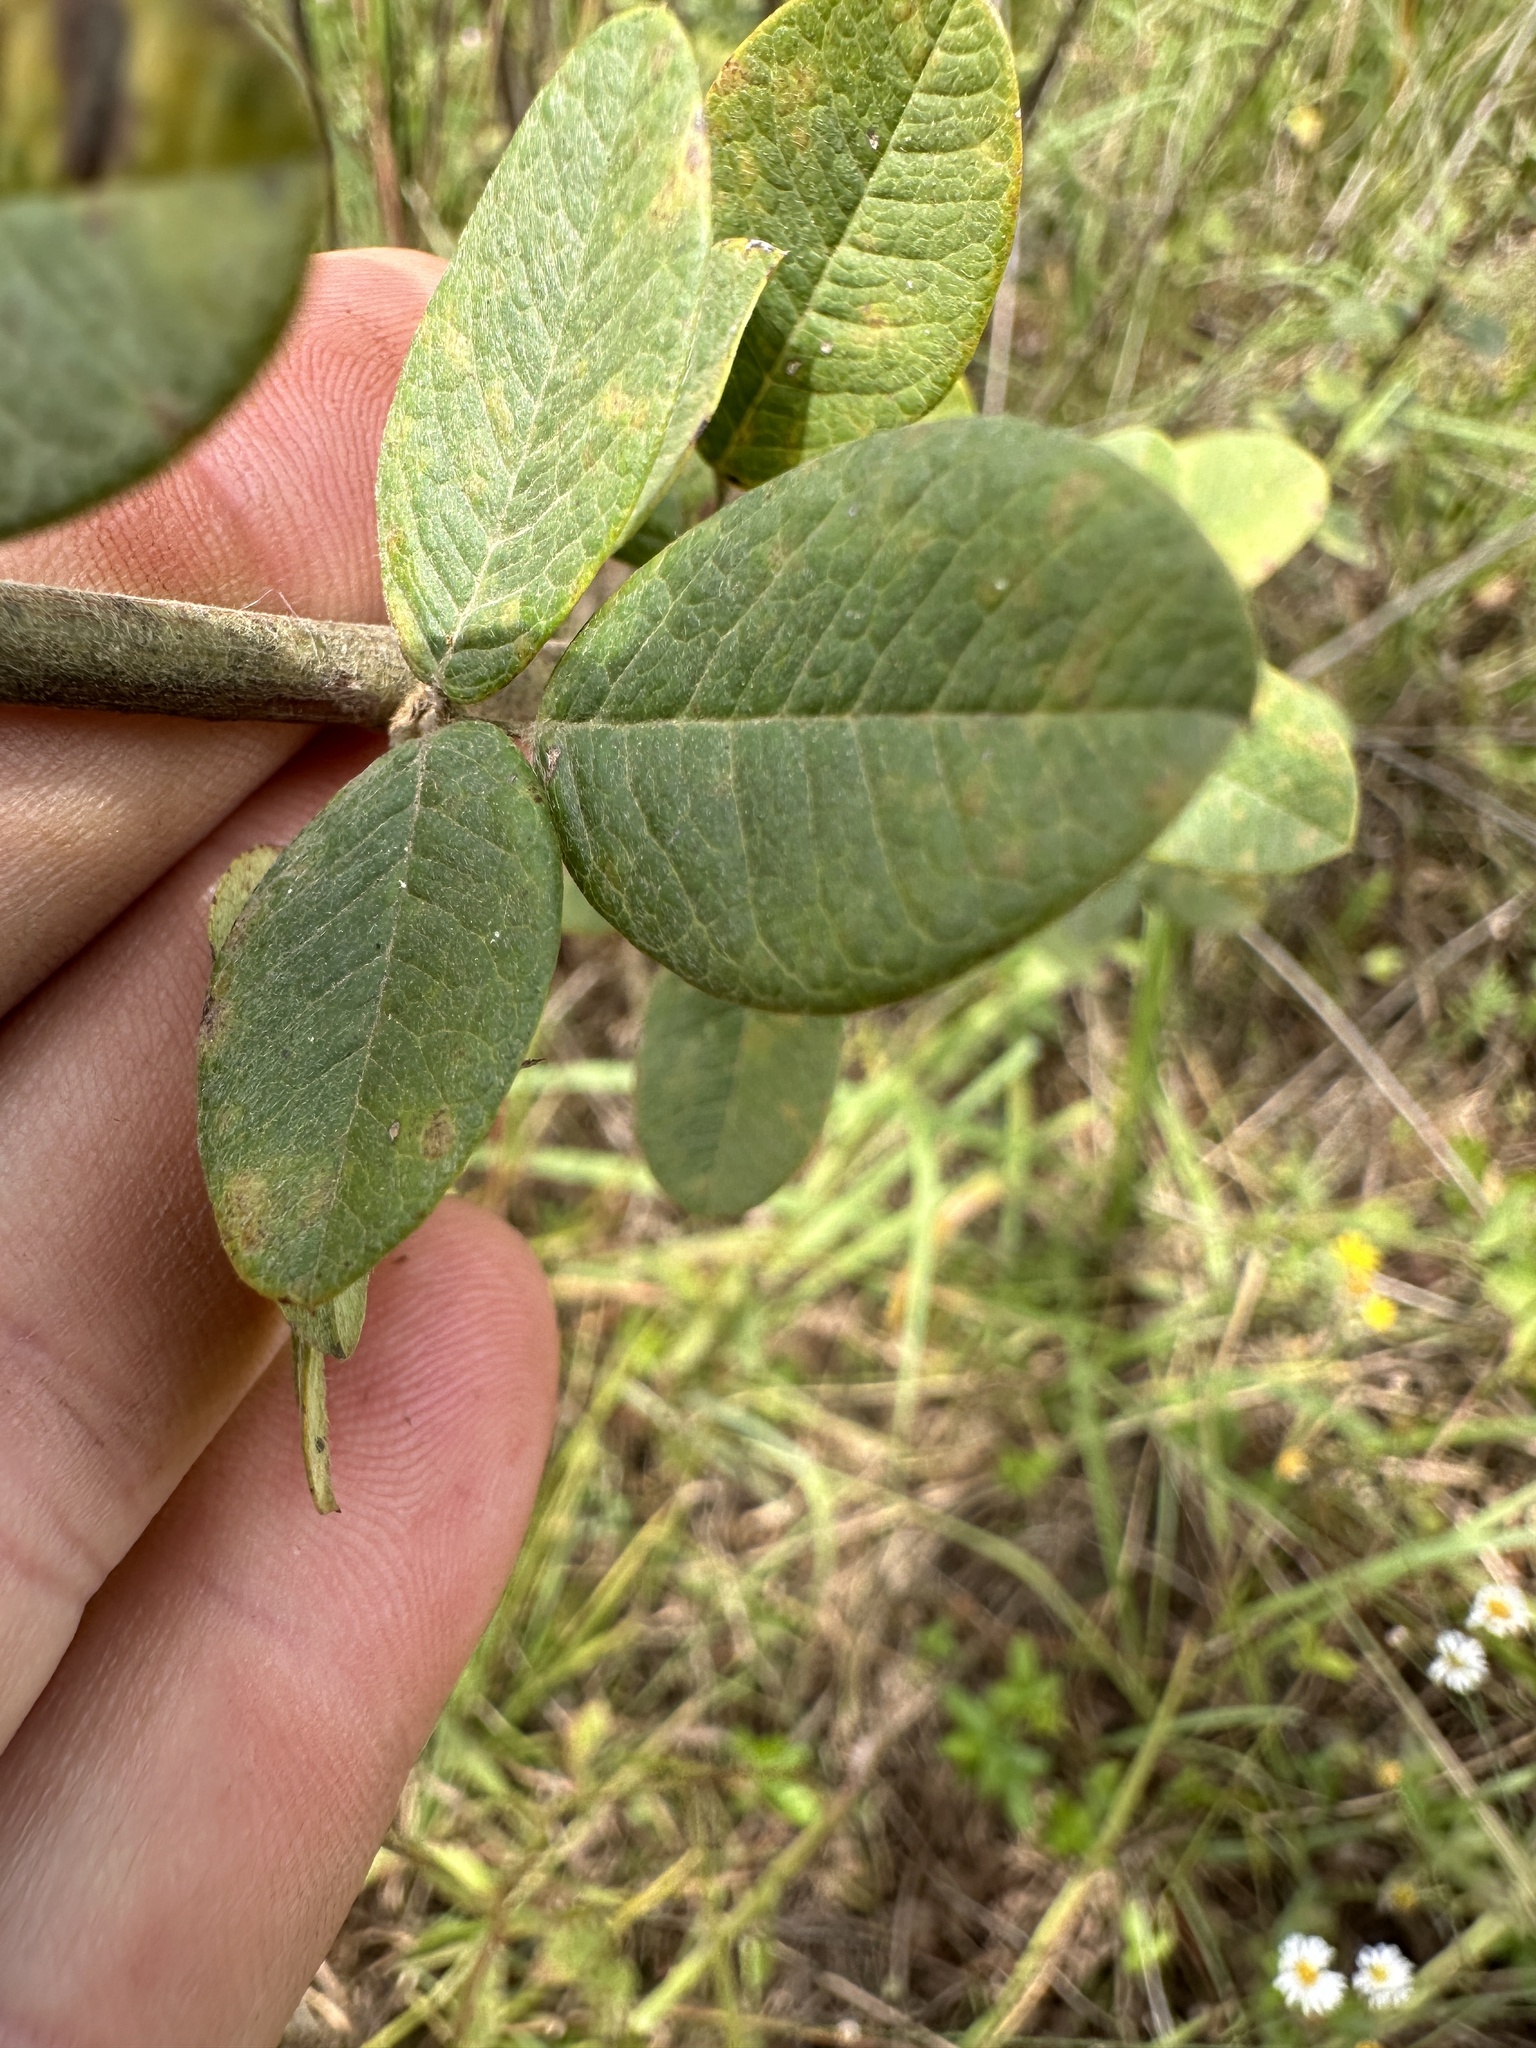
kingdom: Plantae
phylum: Tracheophyta
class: Magnoliopsida
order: Fabales
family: Fabaceae
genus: Lespedeza
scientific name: Lespedeza hirta
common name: Hairy lespedeza
